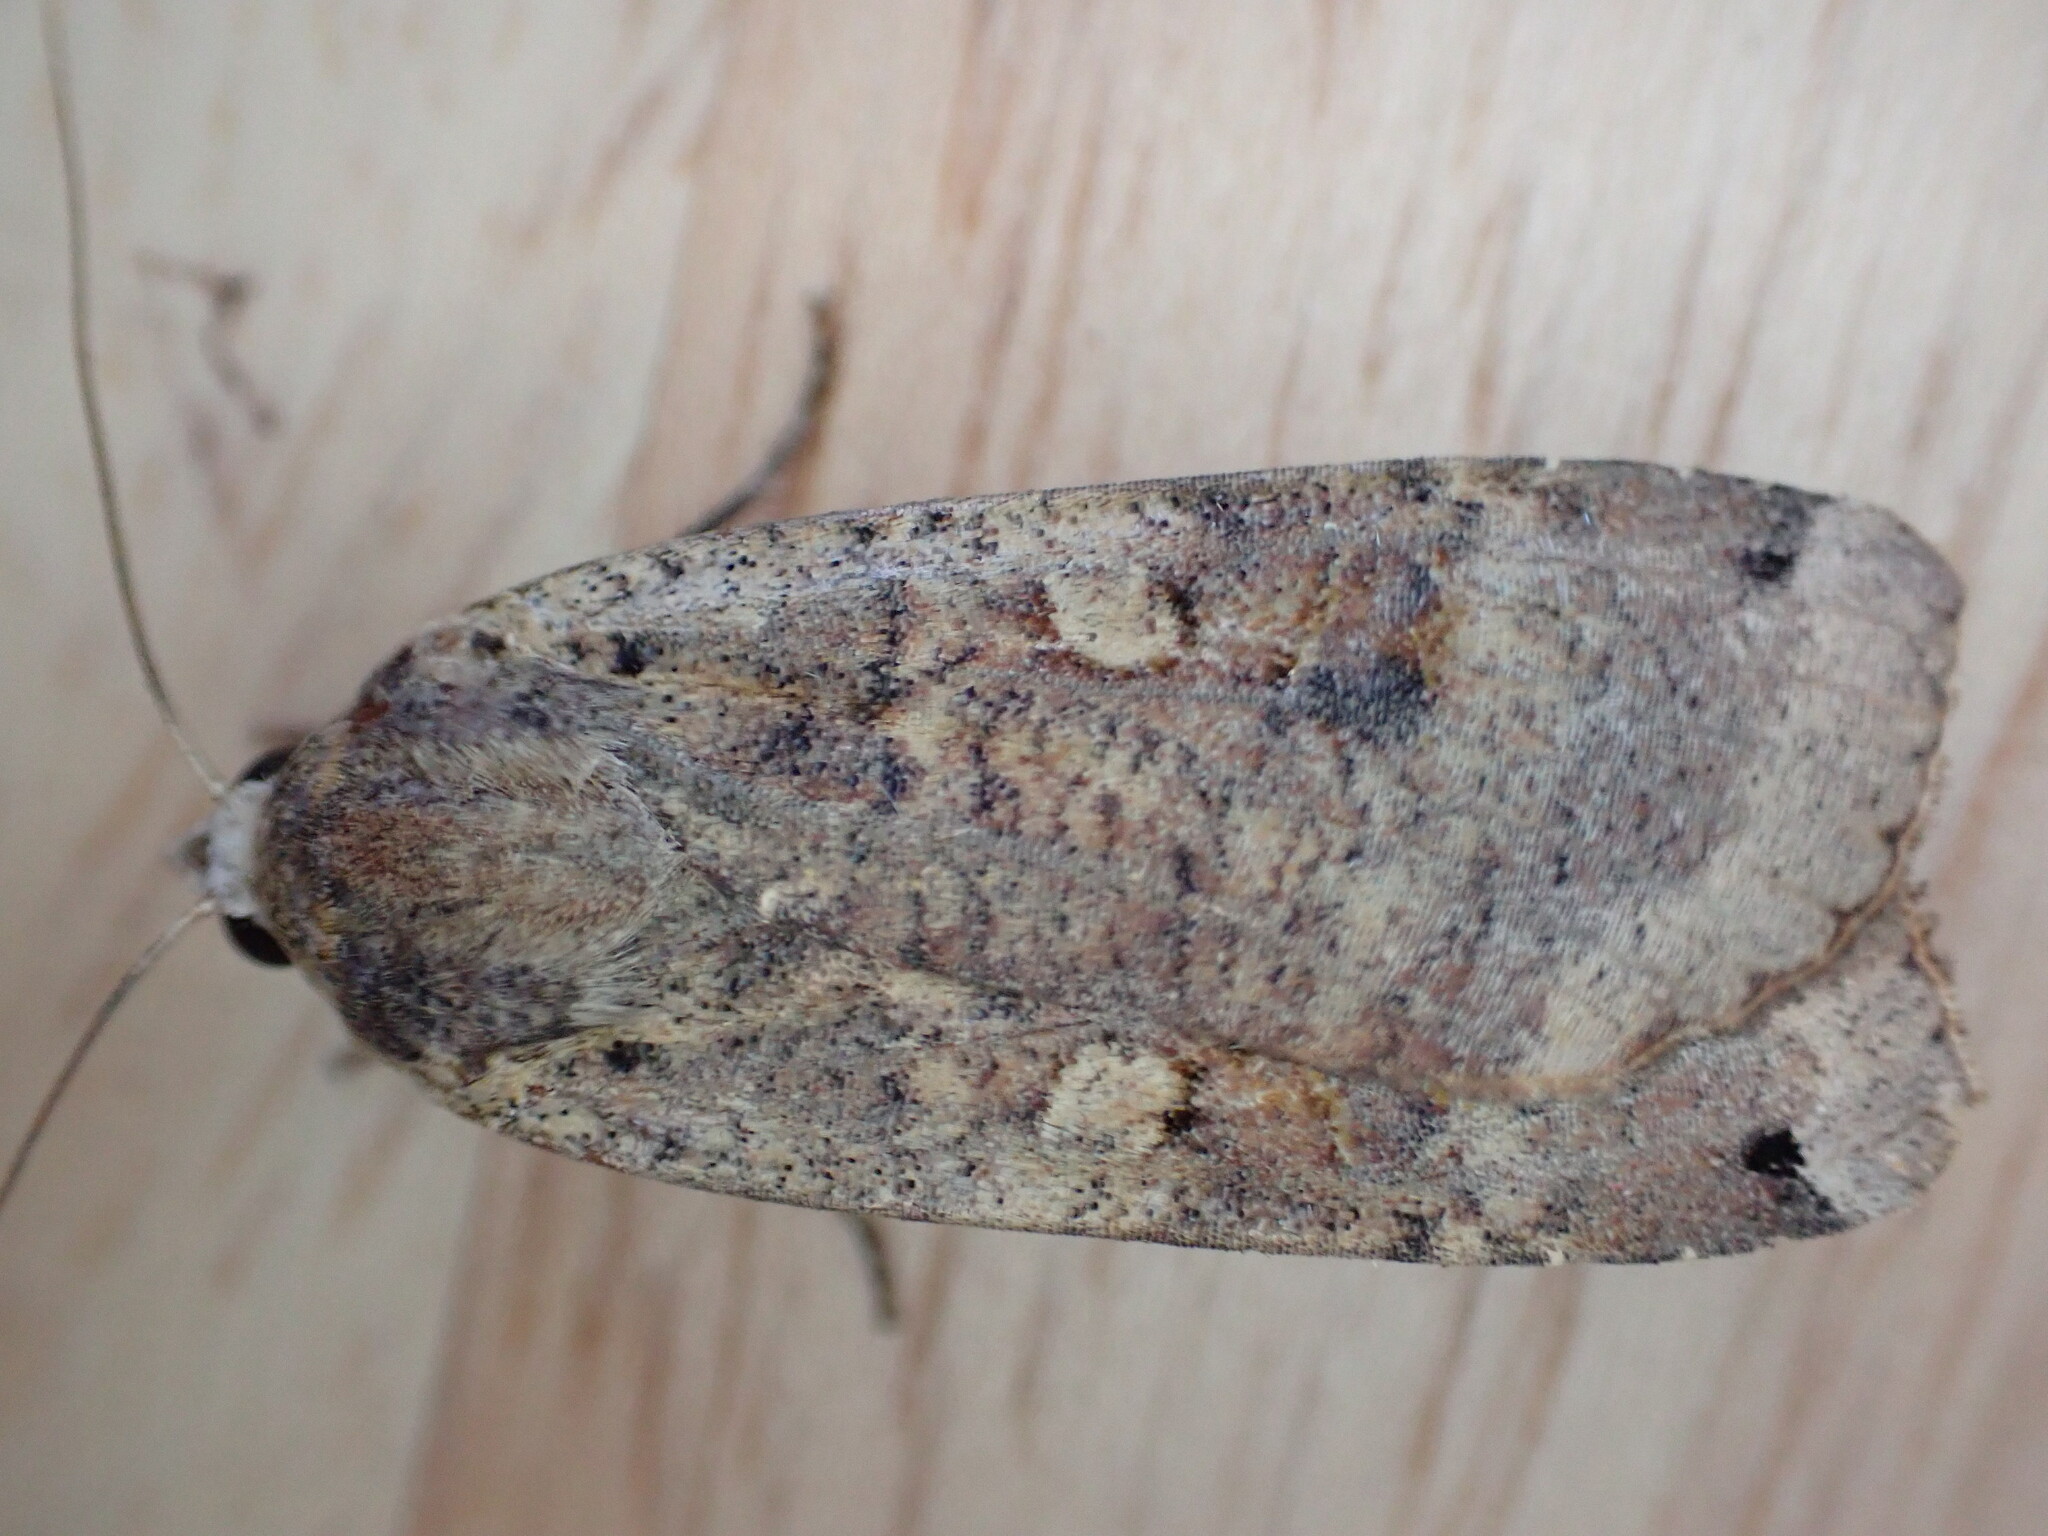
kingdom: Animalia
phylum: Arthropoda
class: Insecta
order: Lepidoptera
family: Noctuidae
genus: Noctua
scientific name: Noctua pronuba
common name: Large yellow underwing
